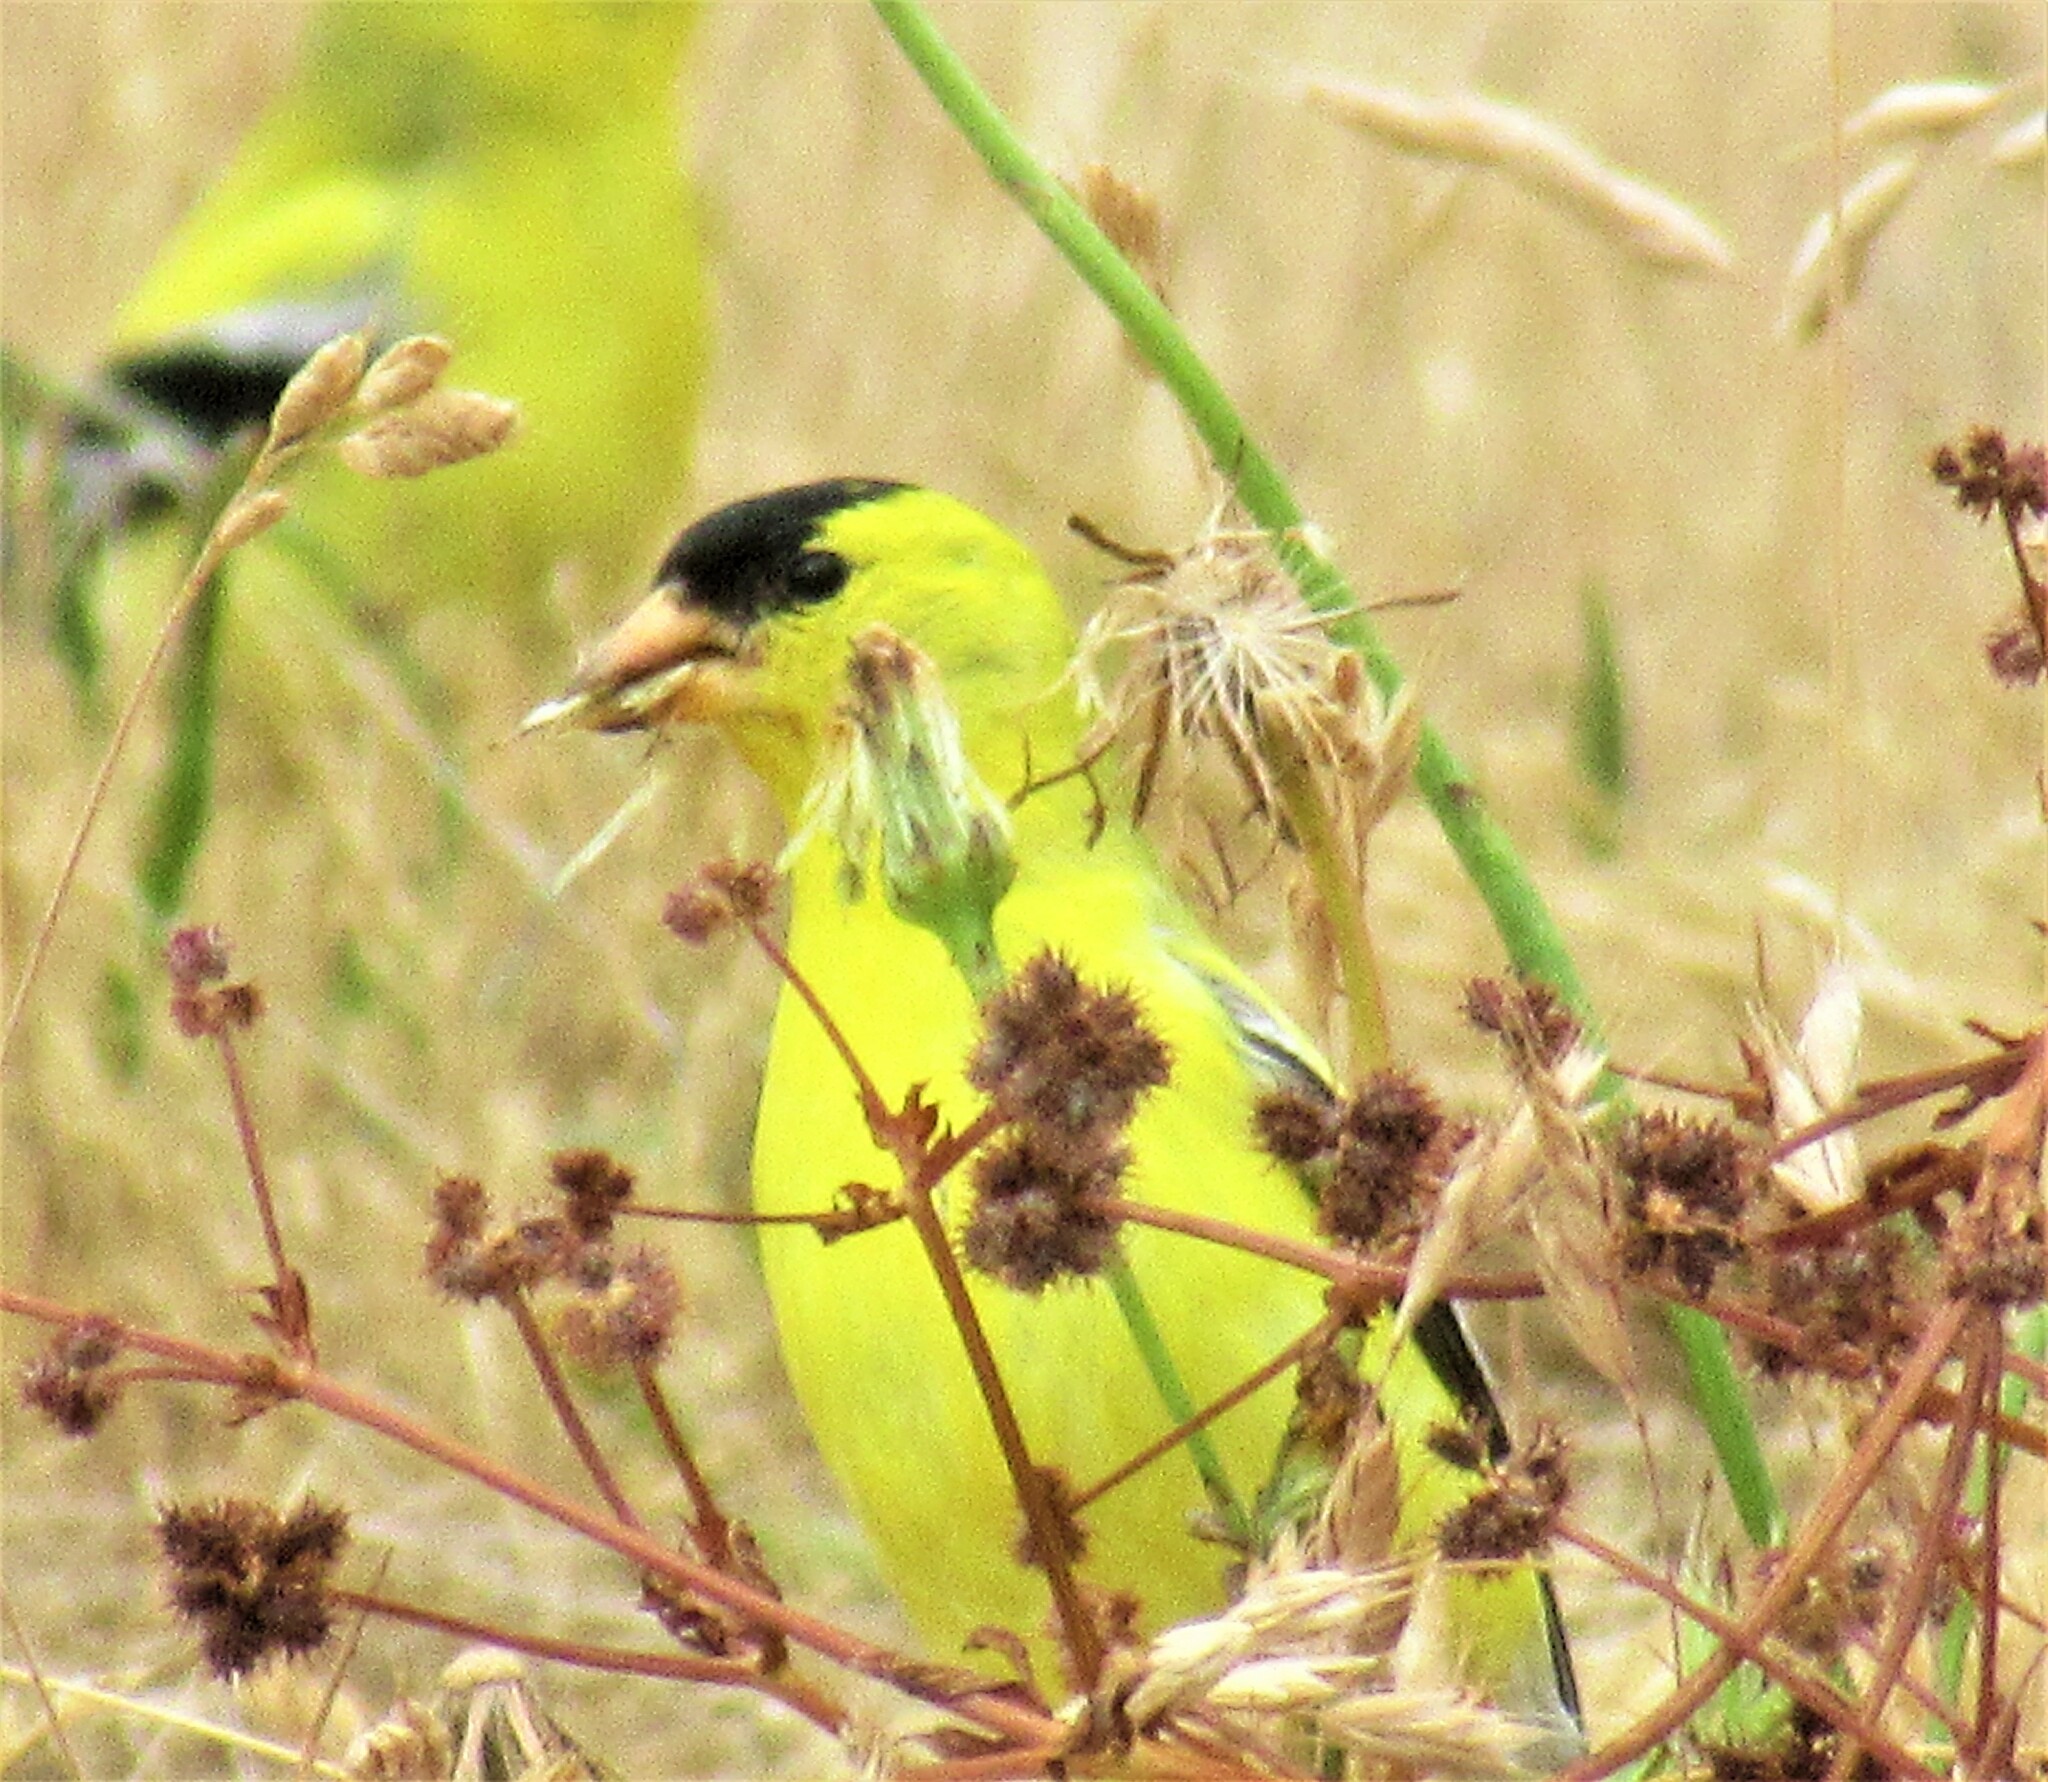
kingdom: Animalia
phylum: Chordata
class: Aves
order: Passeriformes
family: Fringillidae
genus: Spinus
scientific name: Spinus tristis
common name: American goldfinch
